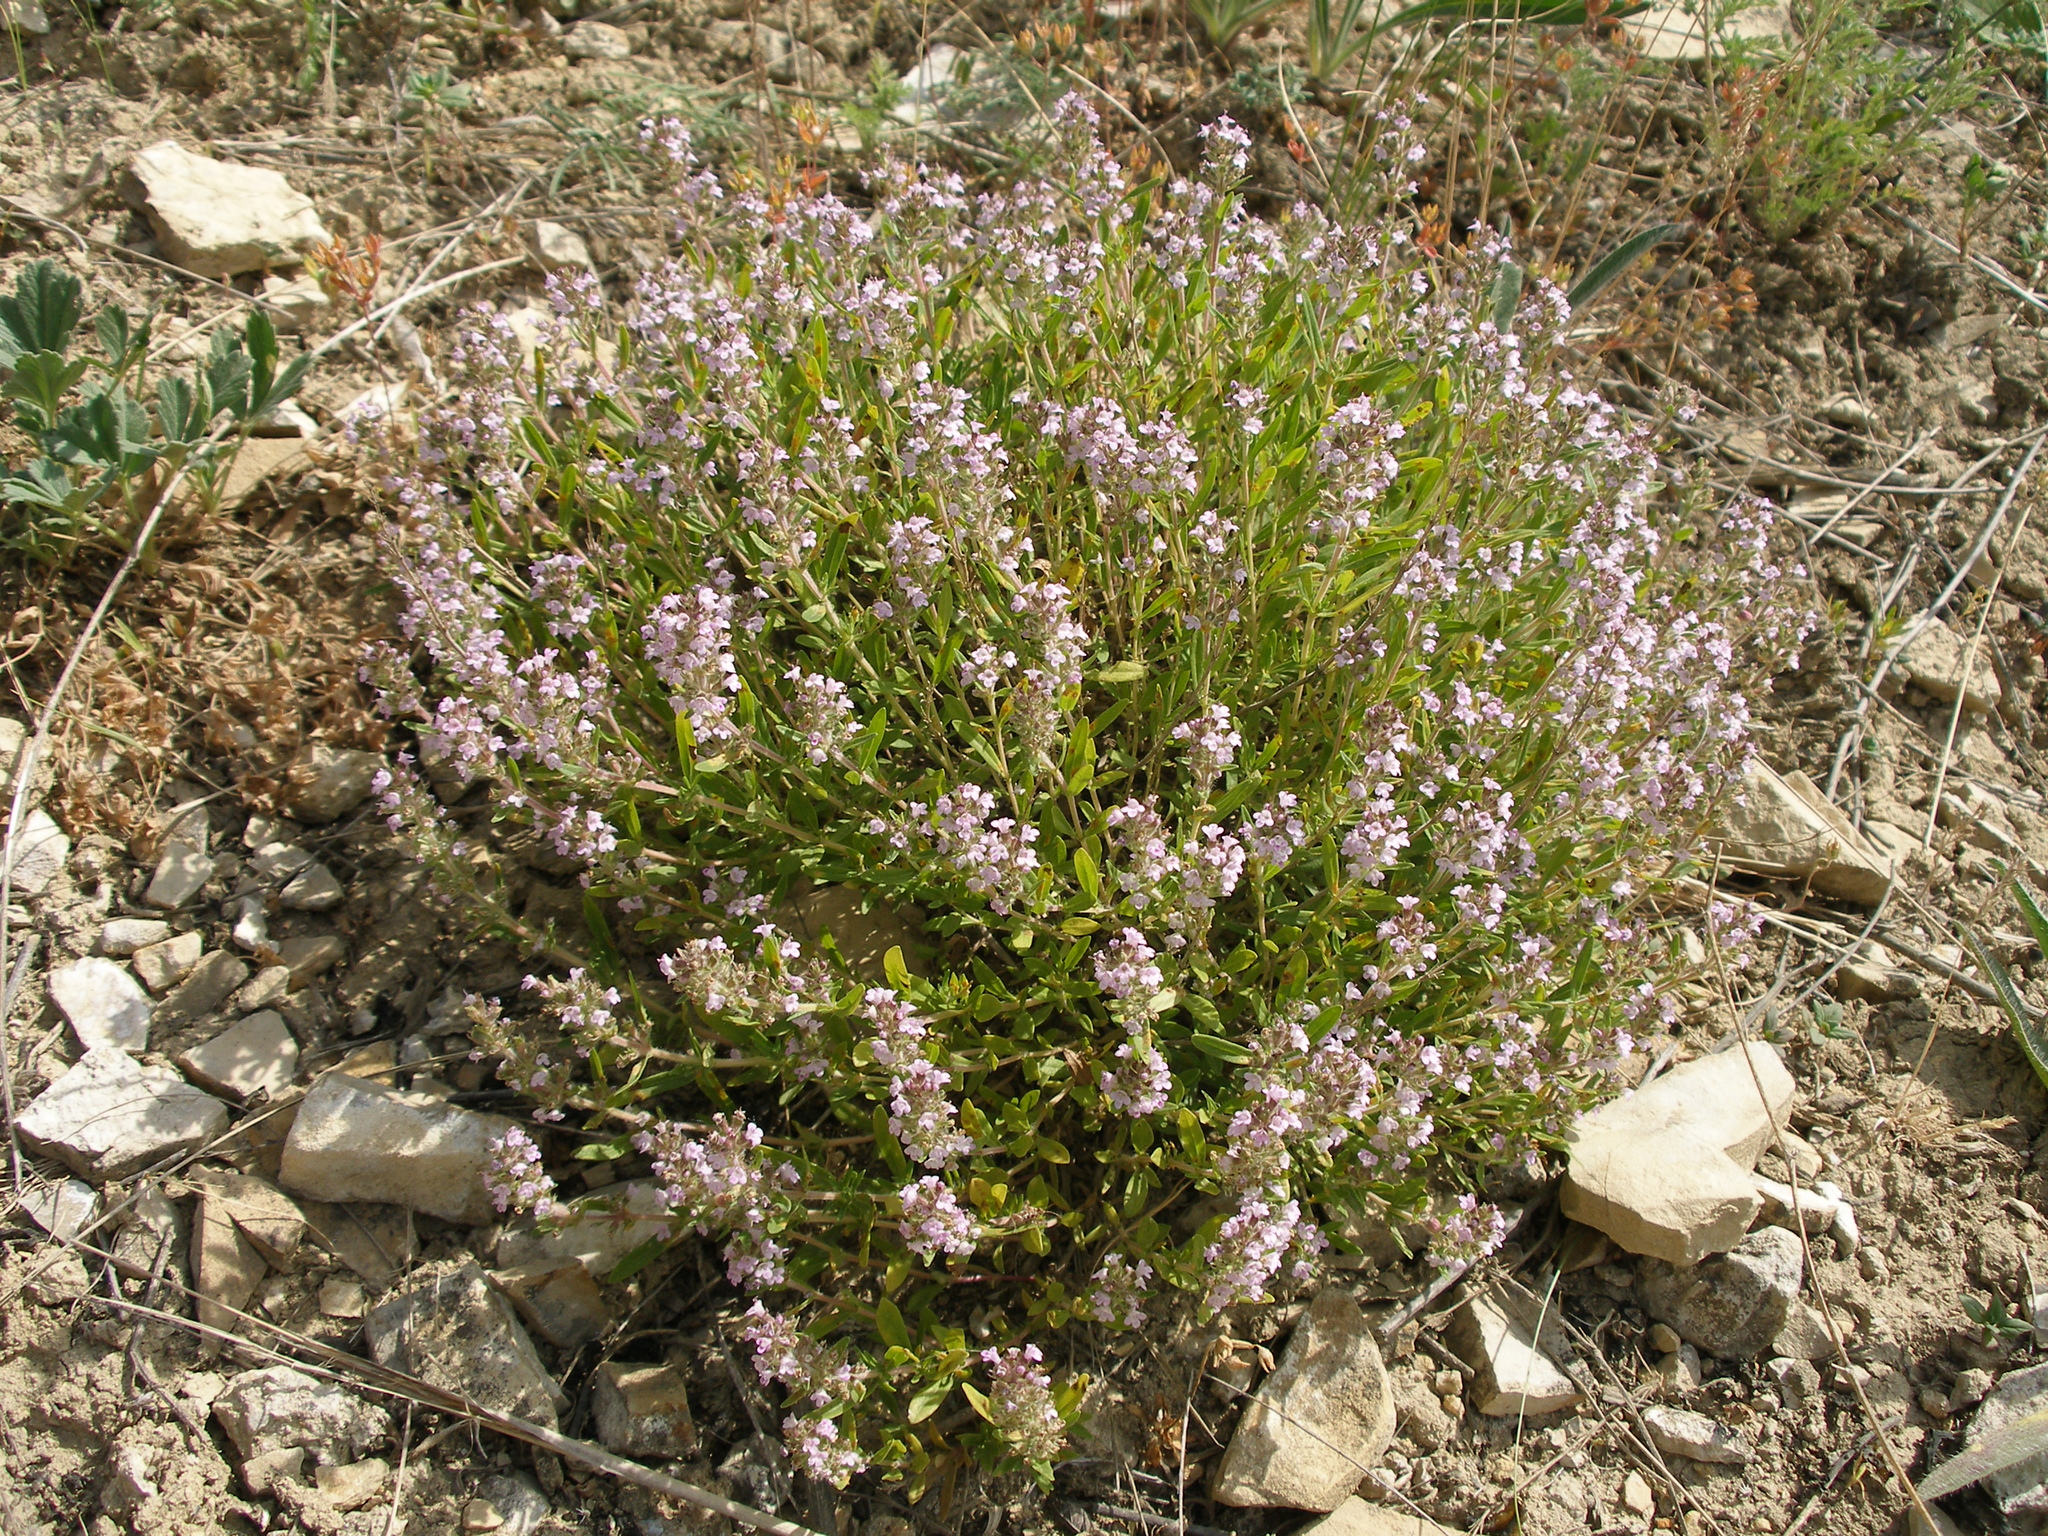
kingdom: Plantae
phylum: Tracheophyta
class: Magnoliopsida
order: Lamiales
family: Lamiaceae
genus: Thymus
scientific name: Thymus pannonicus
